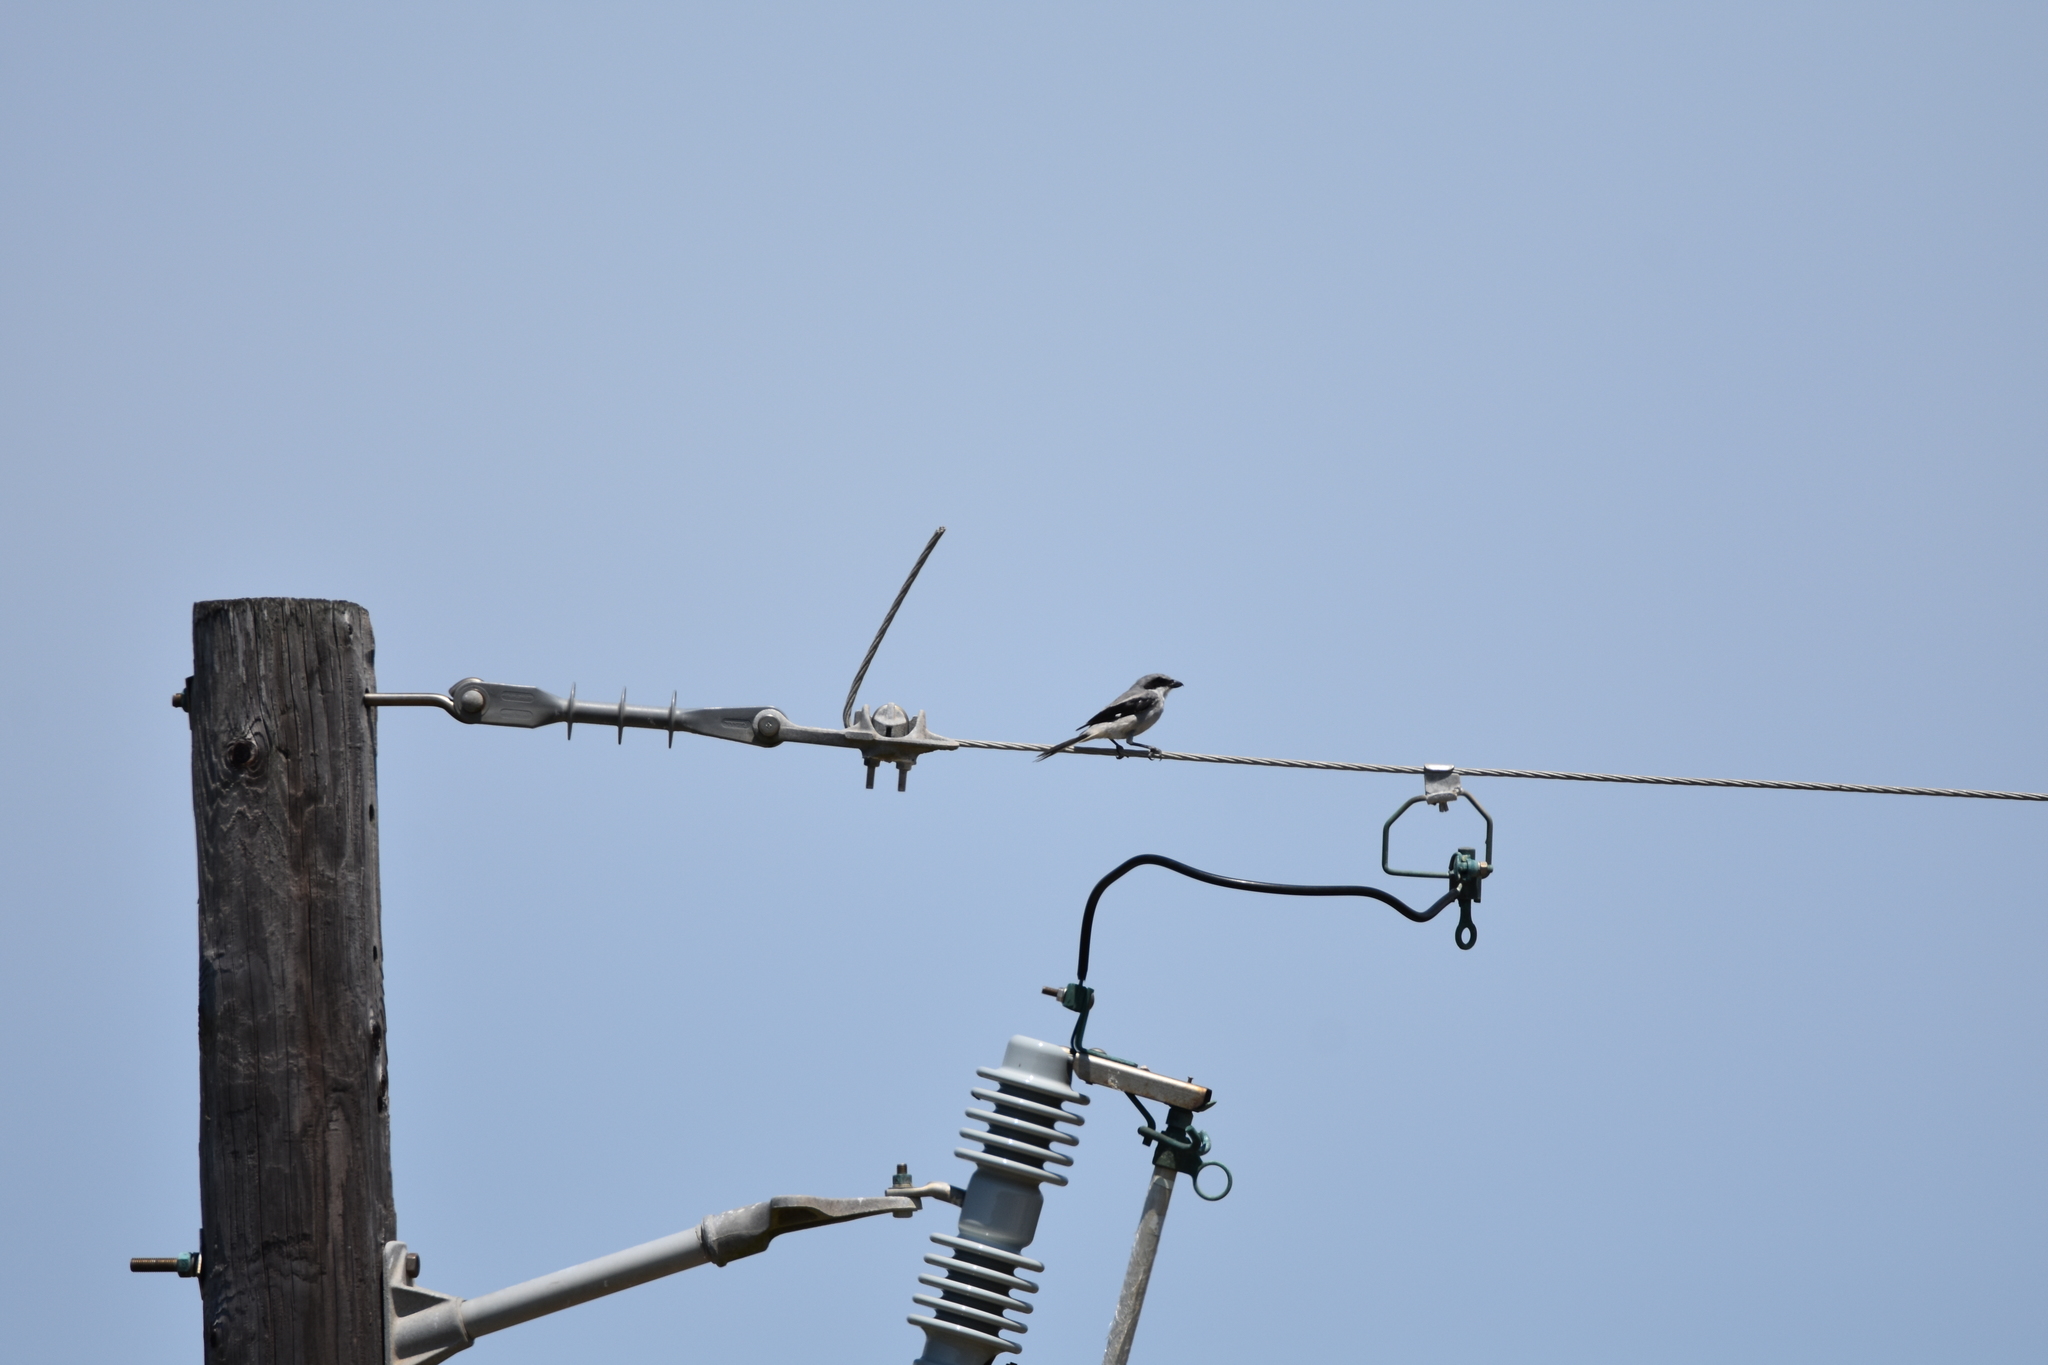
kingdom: Animalia
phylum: Chordata
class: Aves
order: Passeriformes
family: Laniidae
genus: Lanius
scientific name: Lanius ludovicianus
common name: Loggerhead shrike
